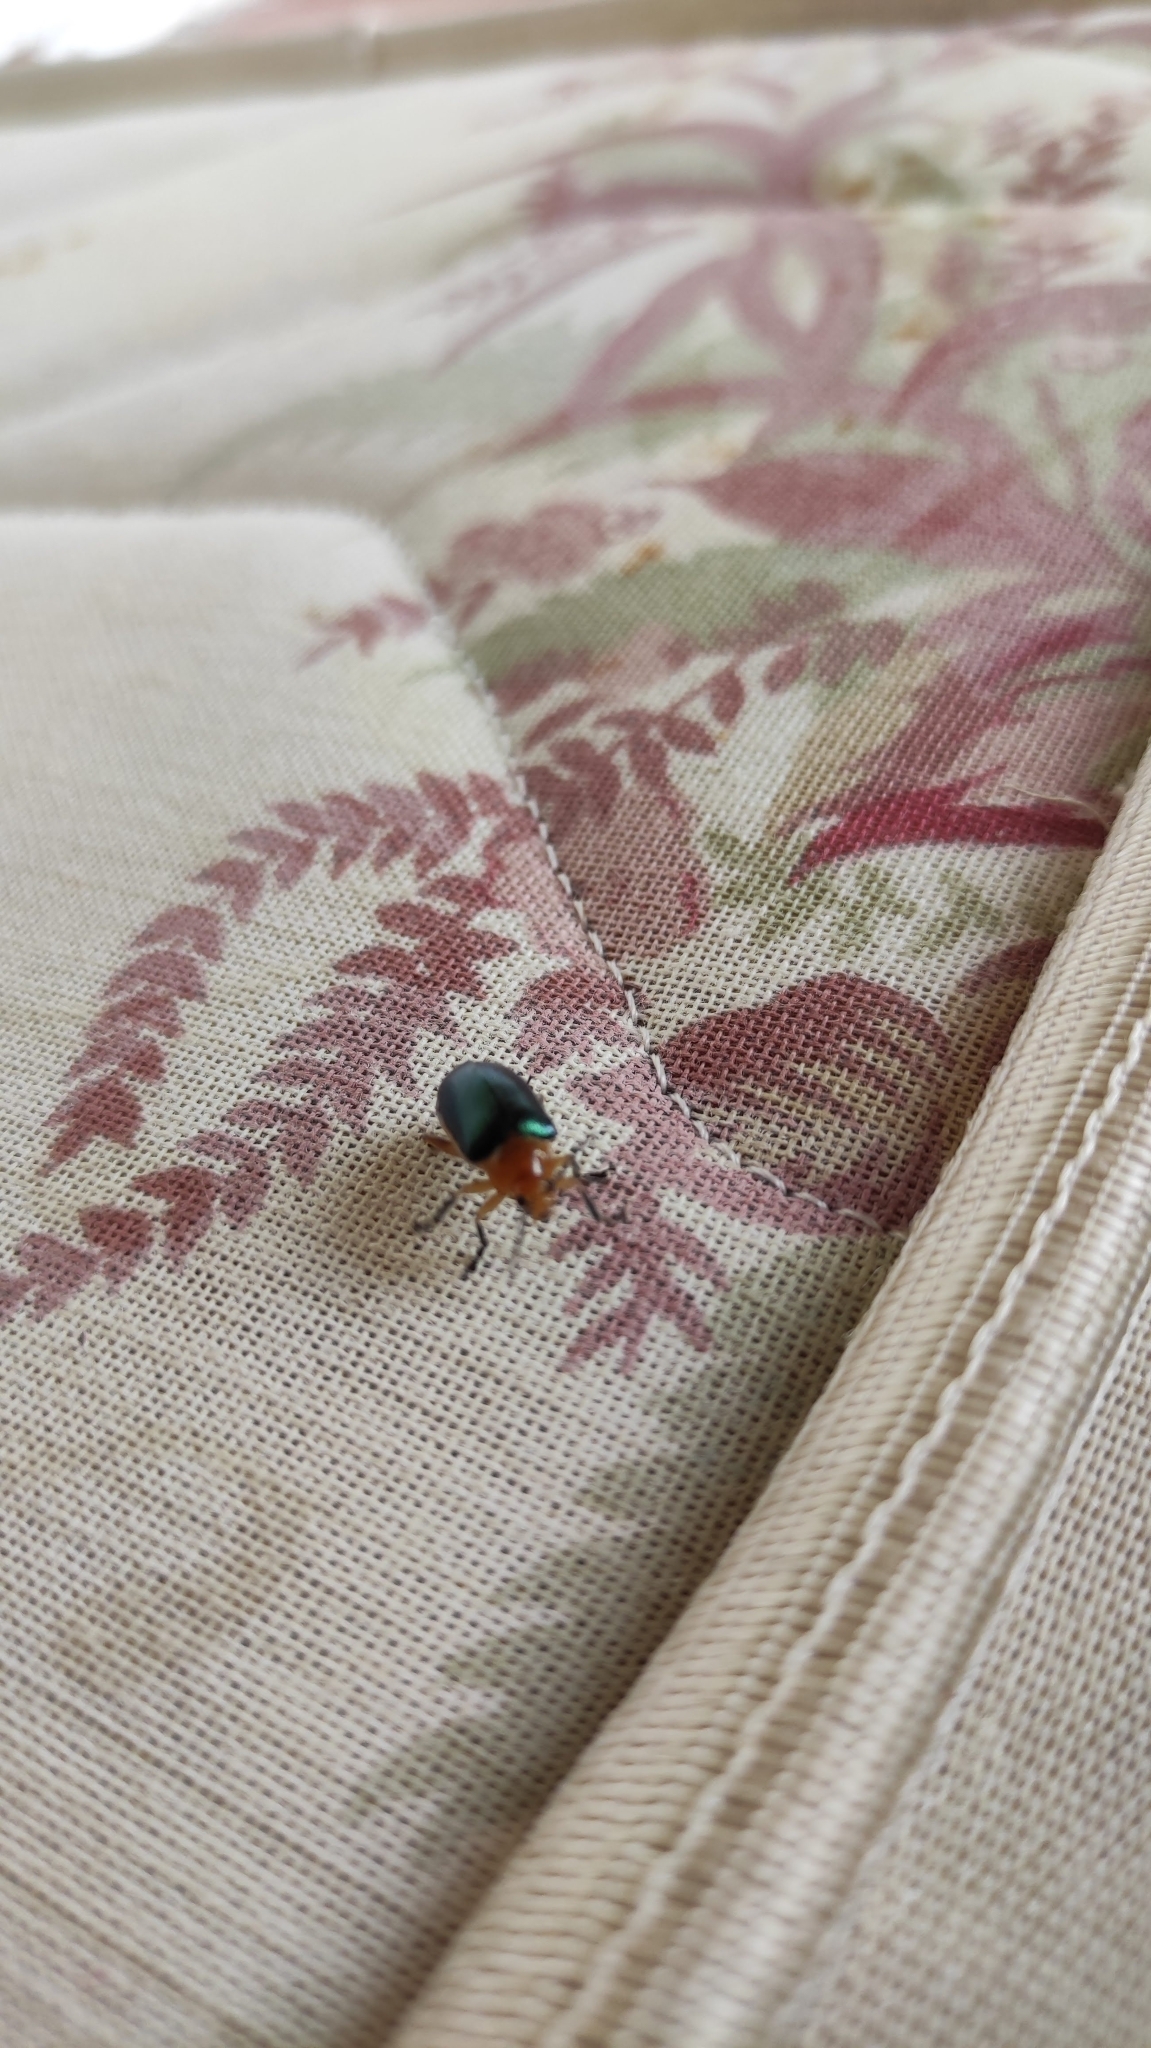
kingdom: Animalia
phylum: Arthropoda
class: Insecta
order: Coleoptera
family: Chrysomelidae
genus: Cacoscelis
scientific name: Cacoscelis marginata
